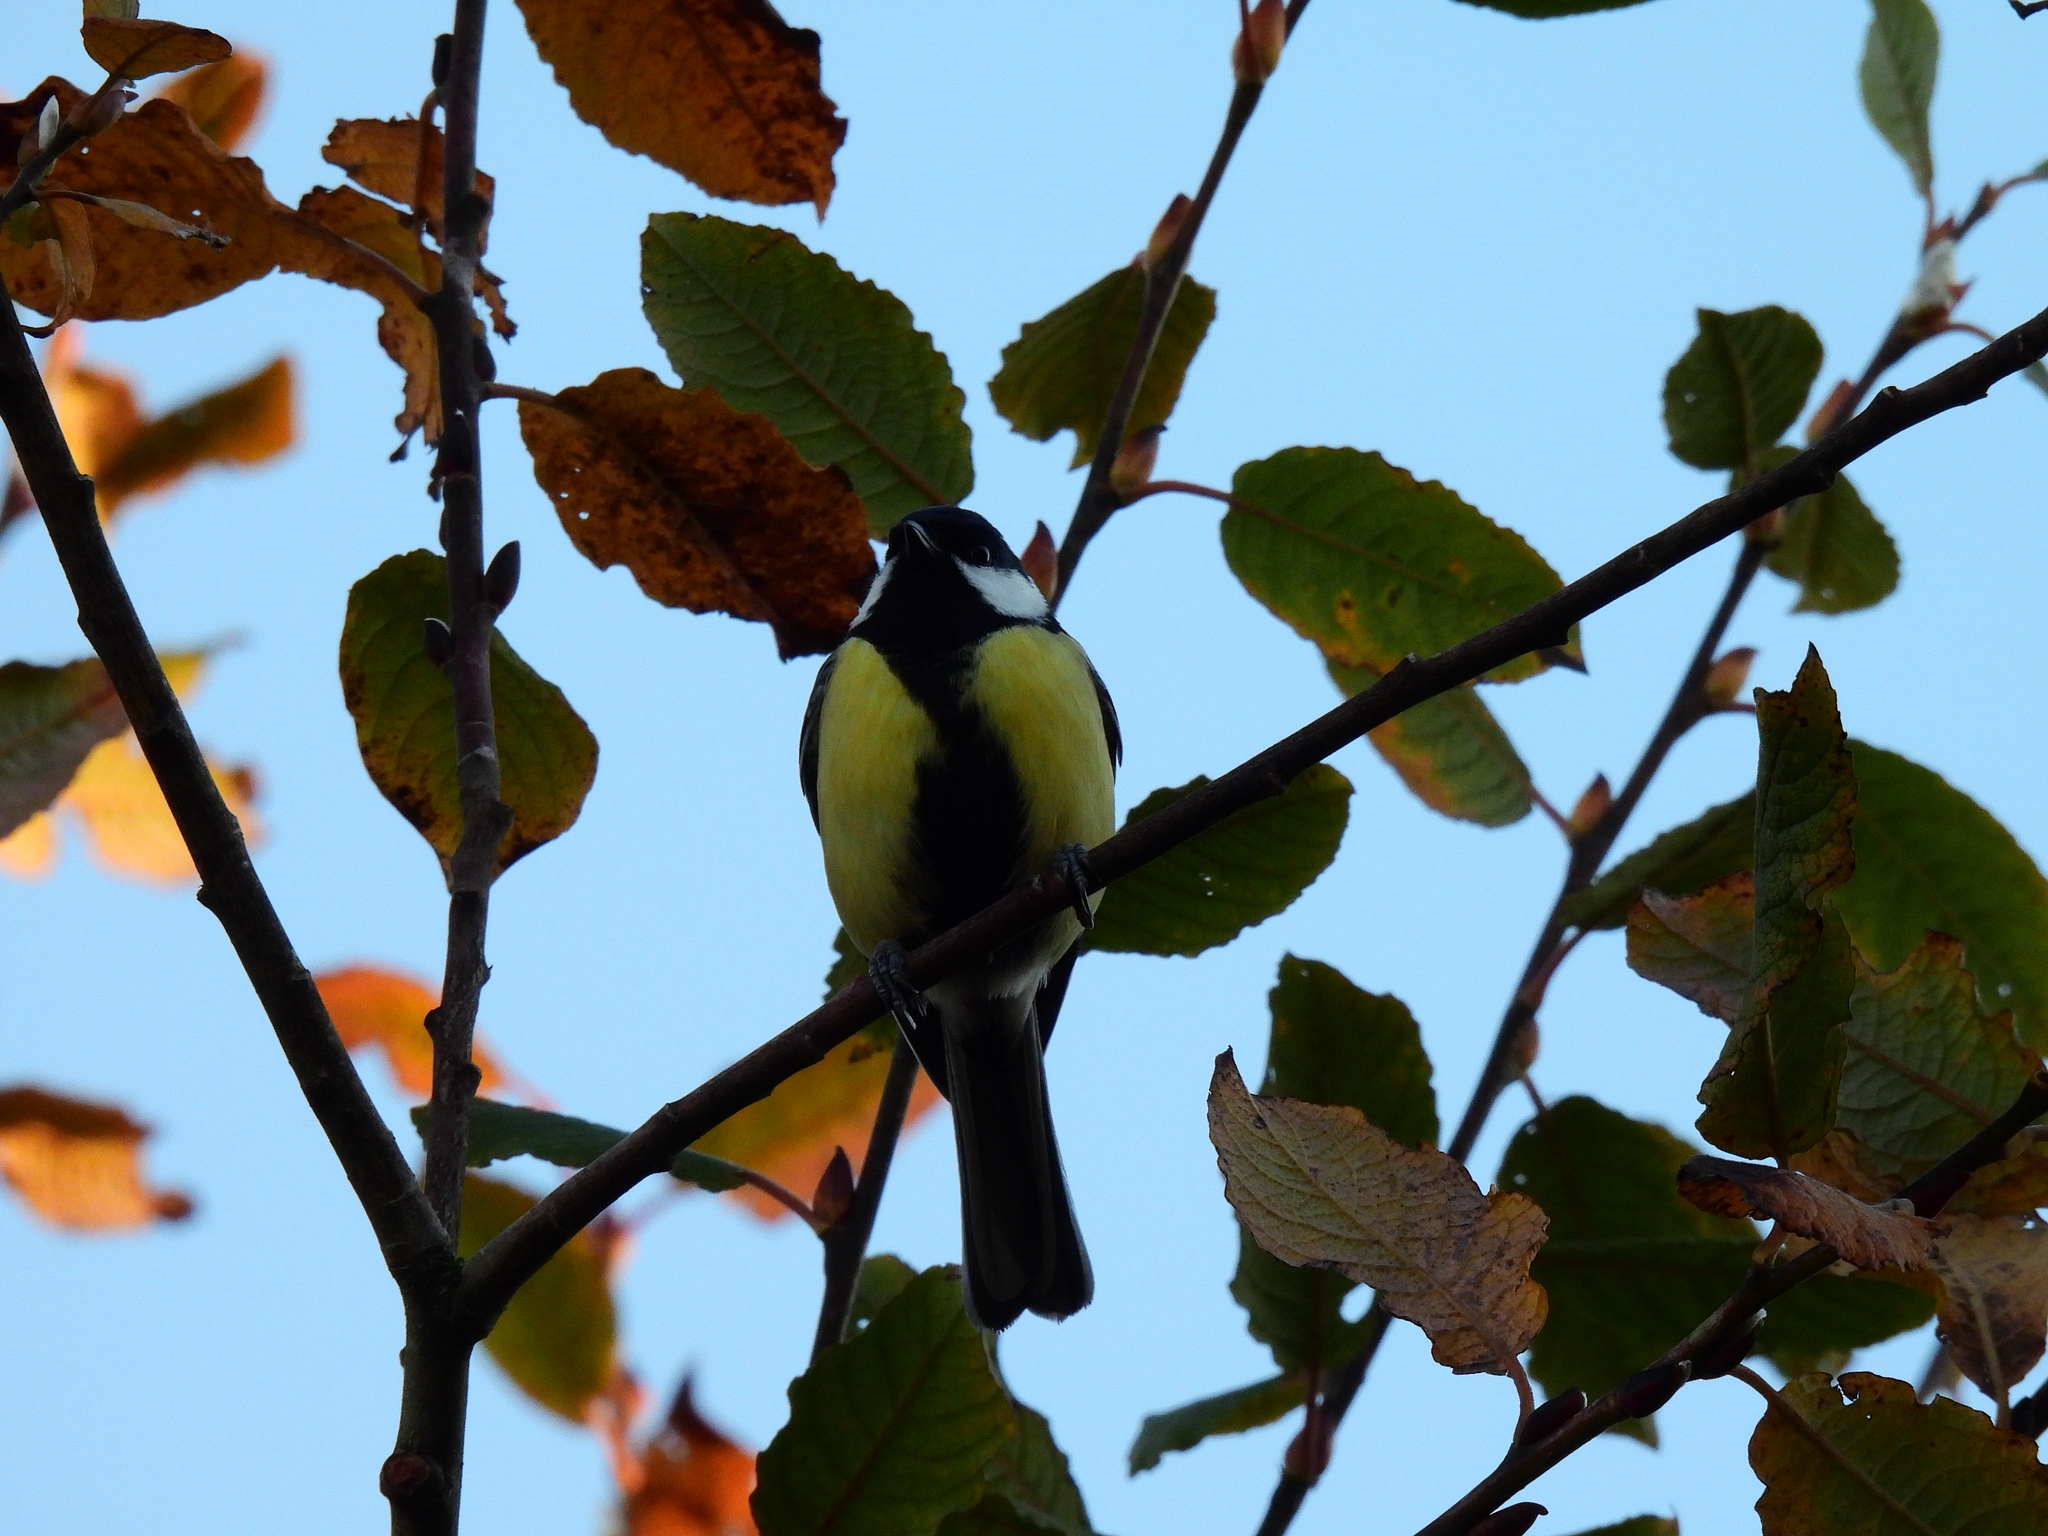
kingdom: Animalia
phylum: Chordata
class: Aves
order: Passeriformes
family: Paridae
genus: Parus
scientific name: Parus major
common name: Great tit
